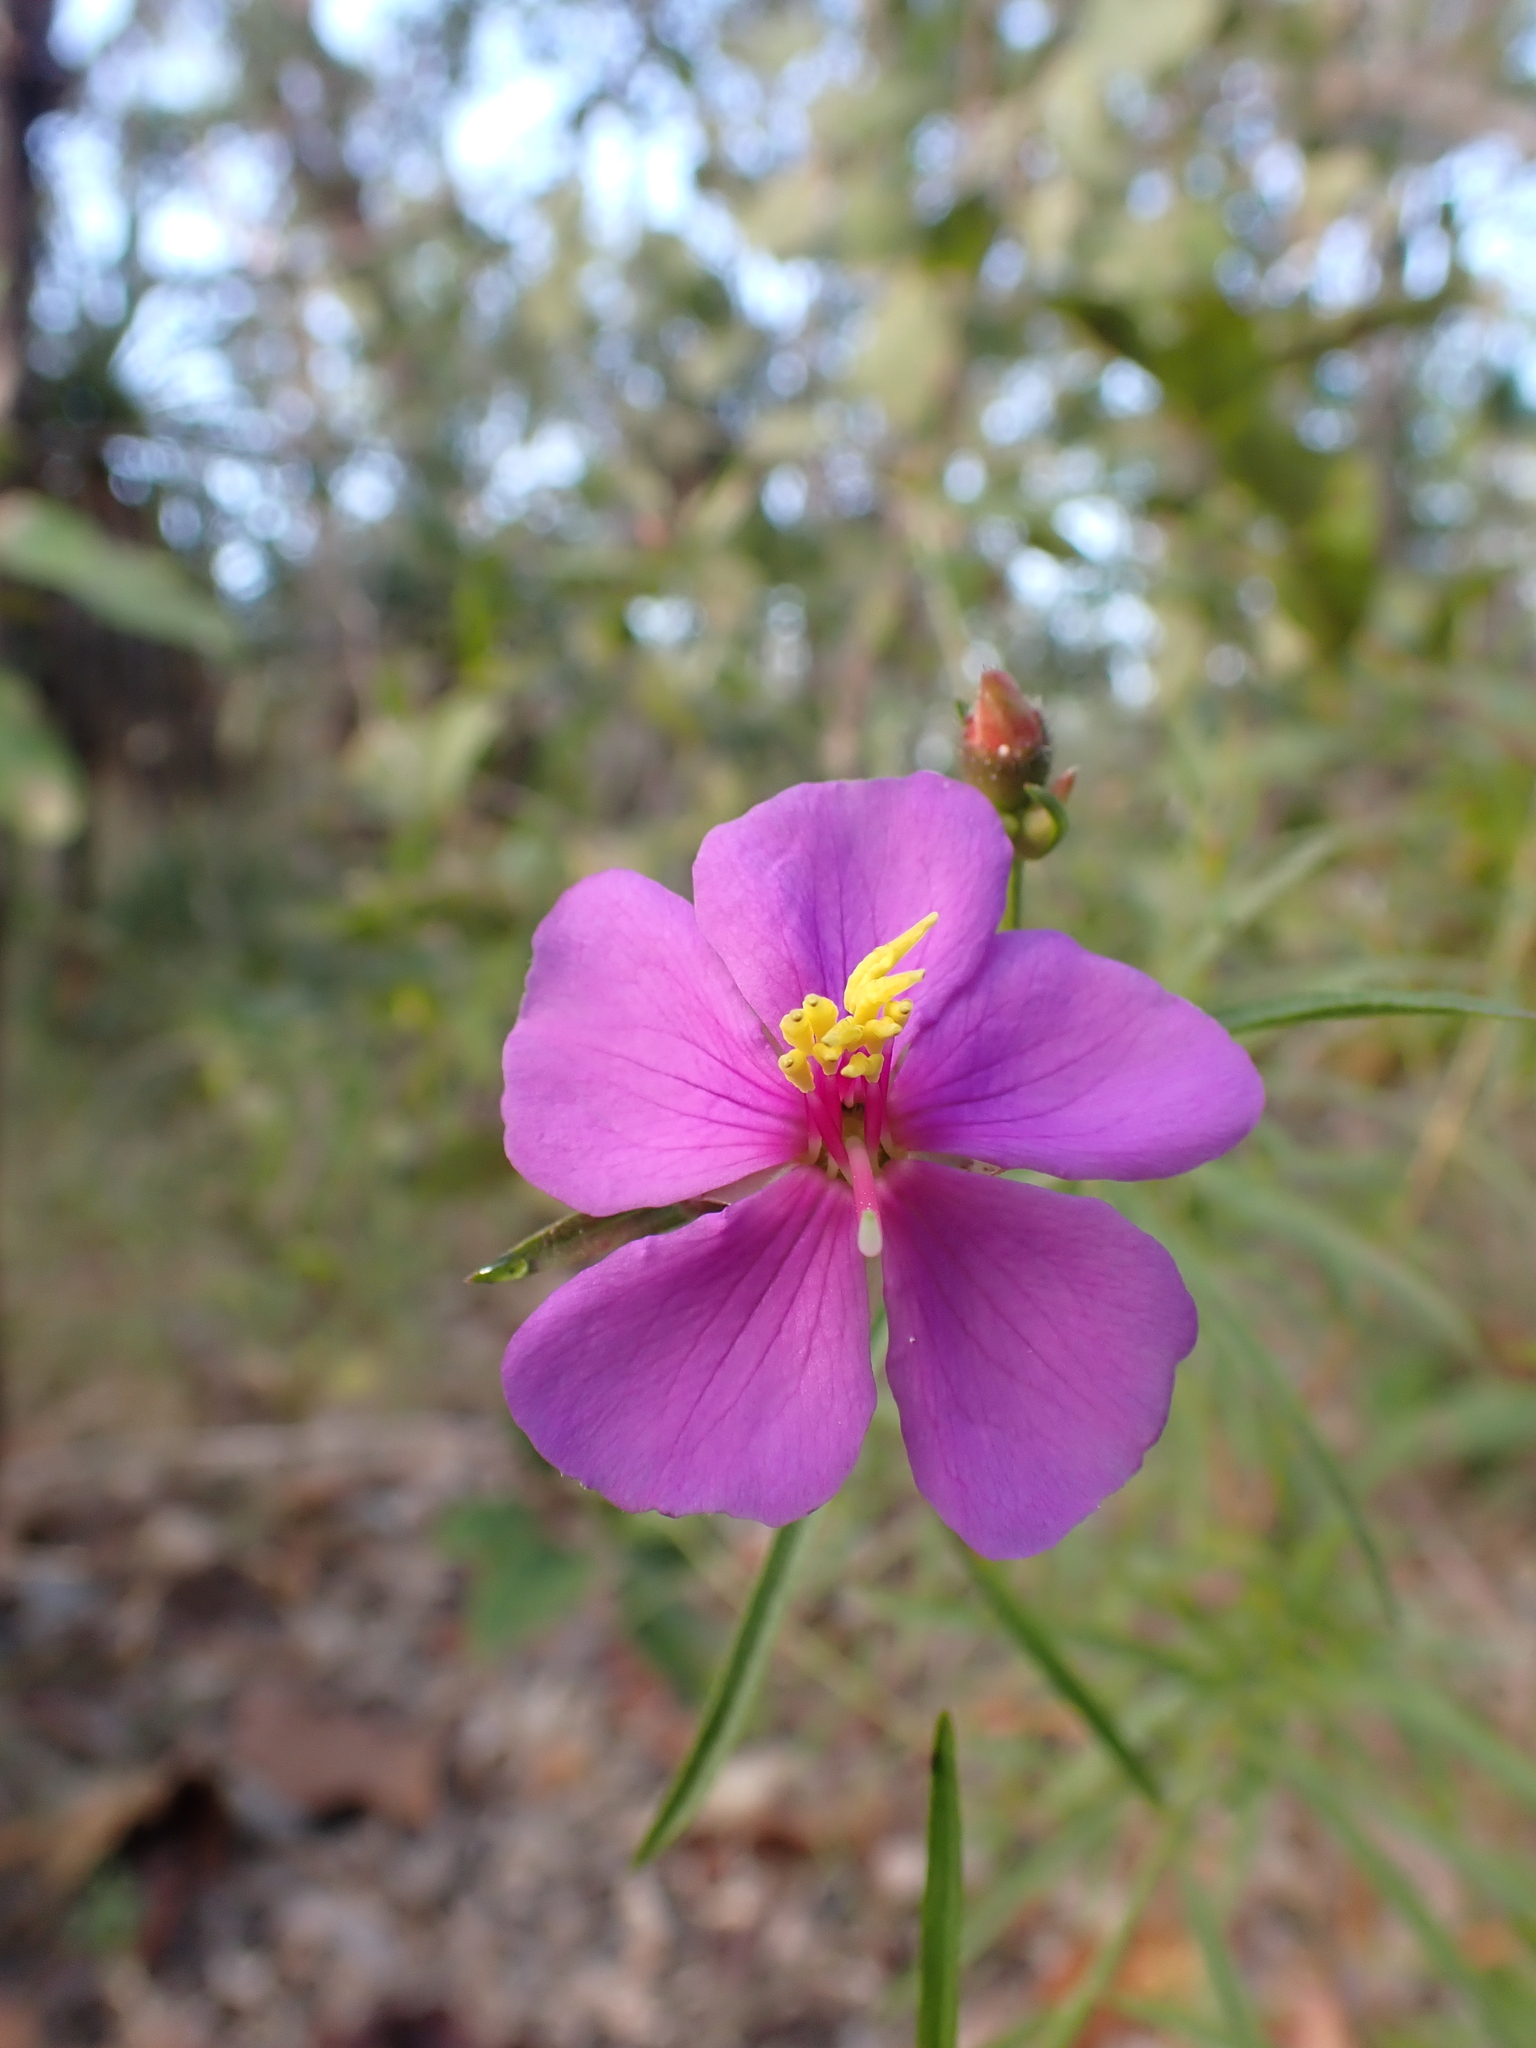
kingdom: Plantae
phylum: Tracheophyta
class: Magnoliopsida
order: Myrtales
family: Melastomataceae
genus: Osbeckia
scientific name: Osbeckia australiana
